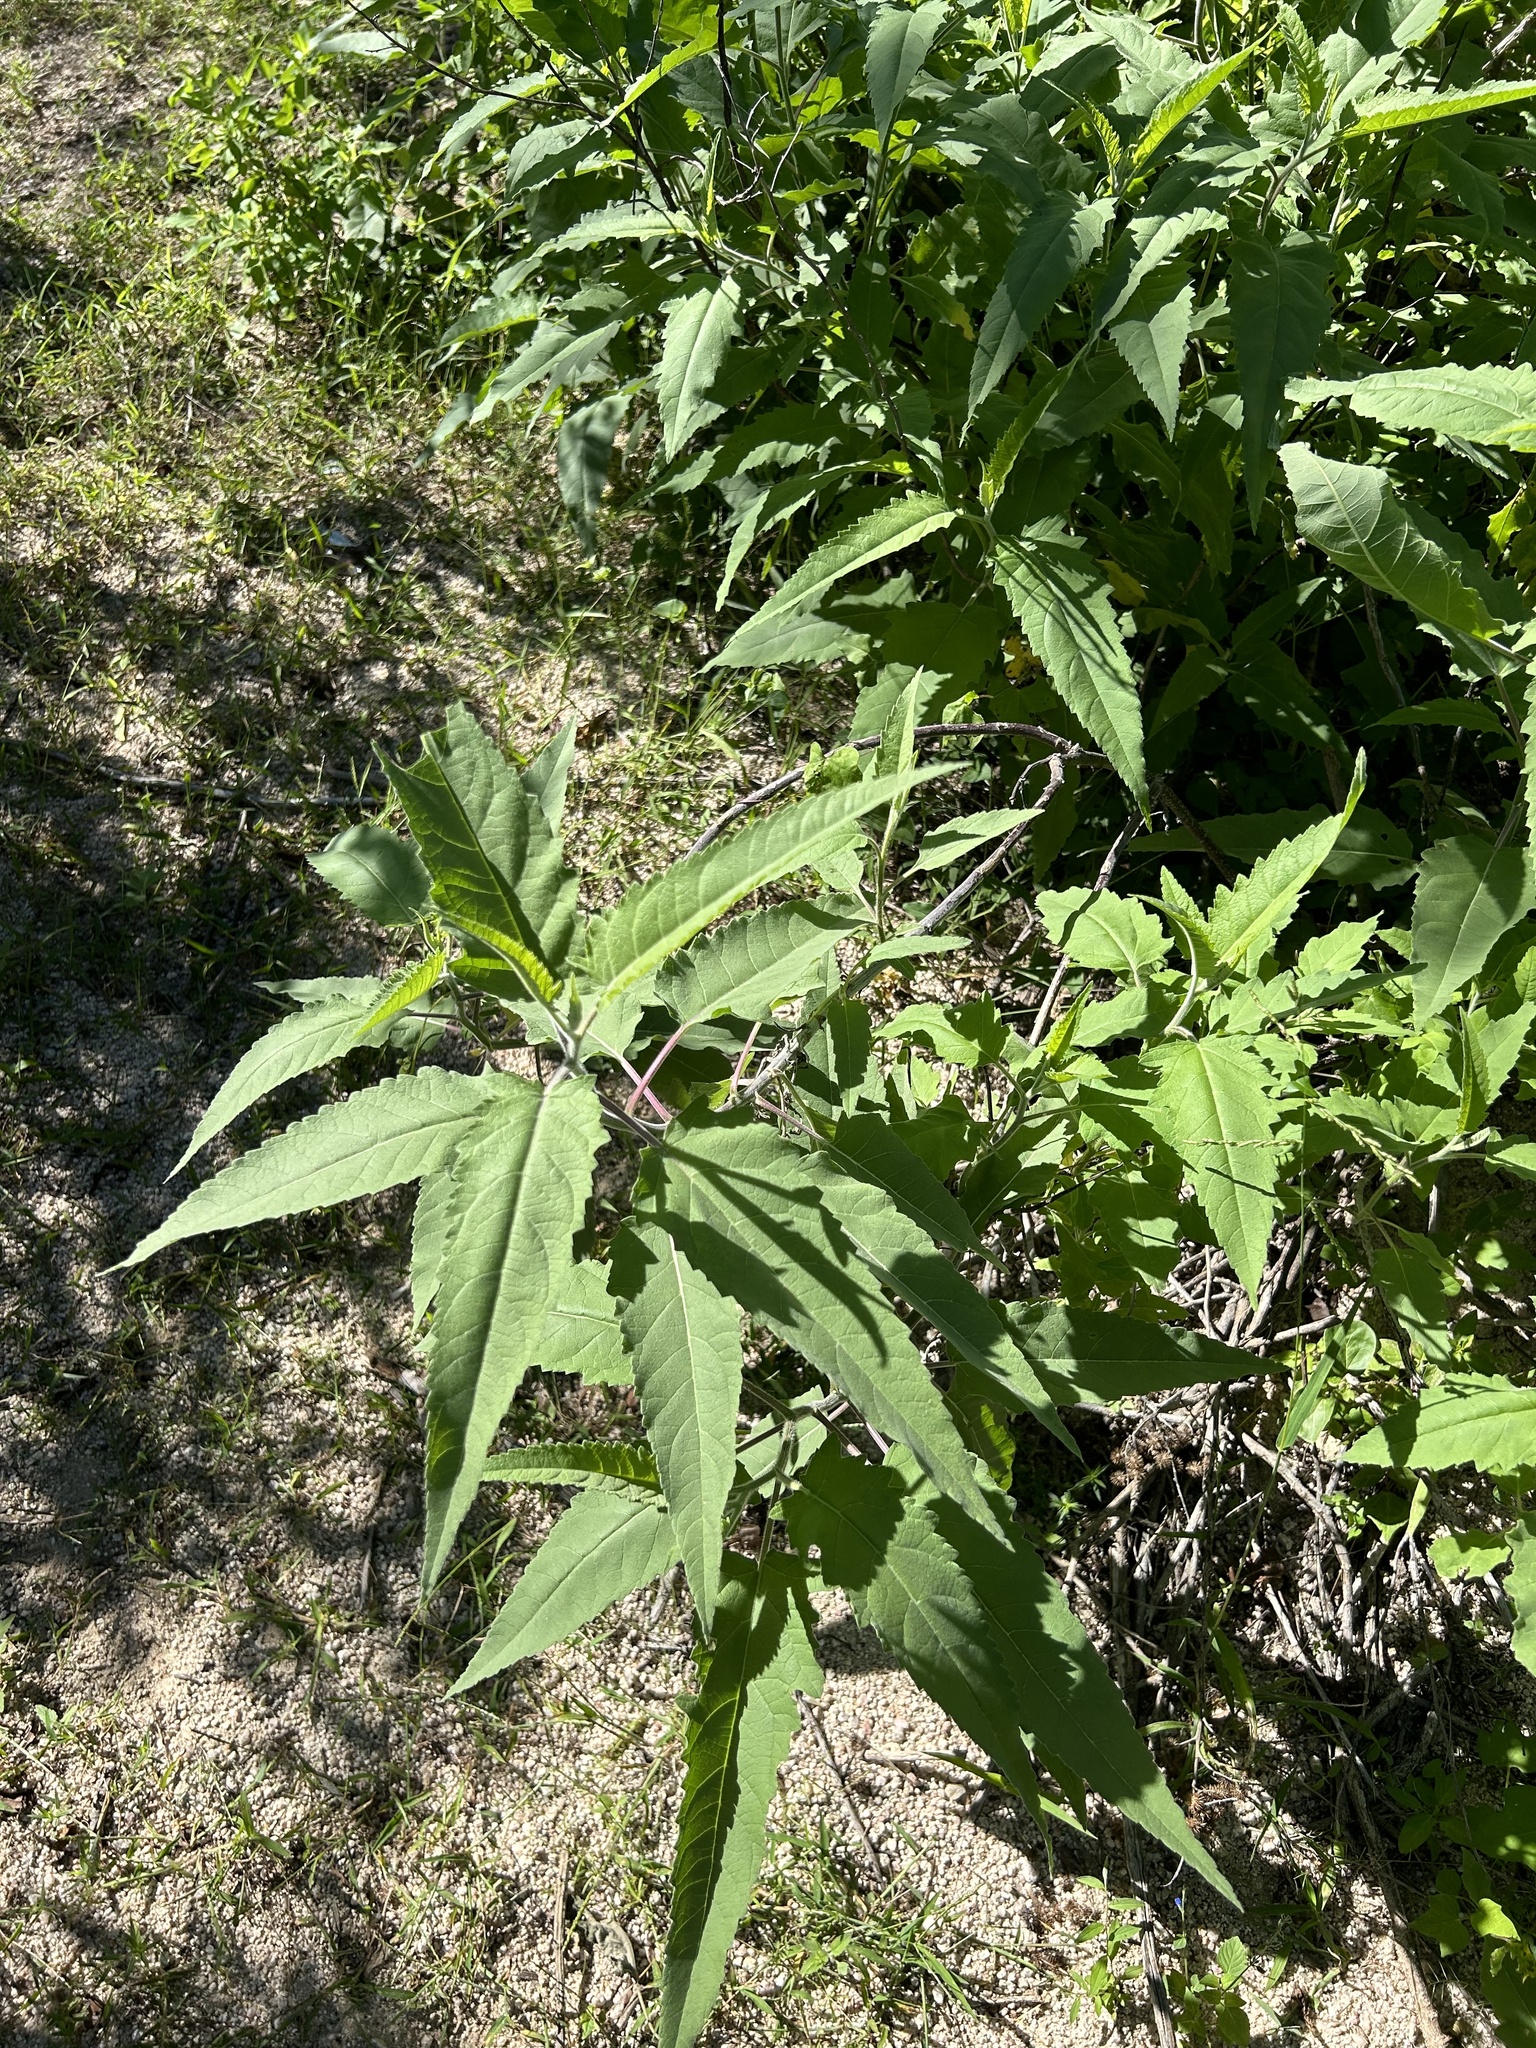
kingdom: Plantae
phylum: Tracheophyta
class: Magnoliopsida
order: Asterales
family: Asteraceae
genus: Ambrosia
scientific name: Ambrosia ambrosioides
